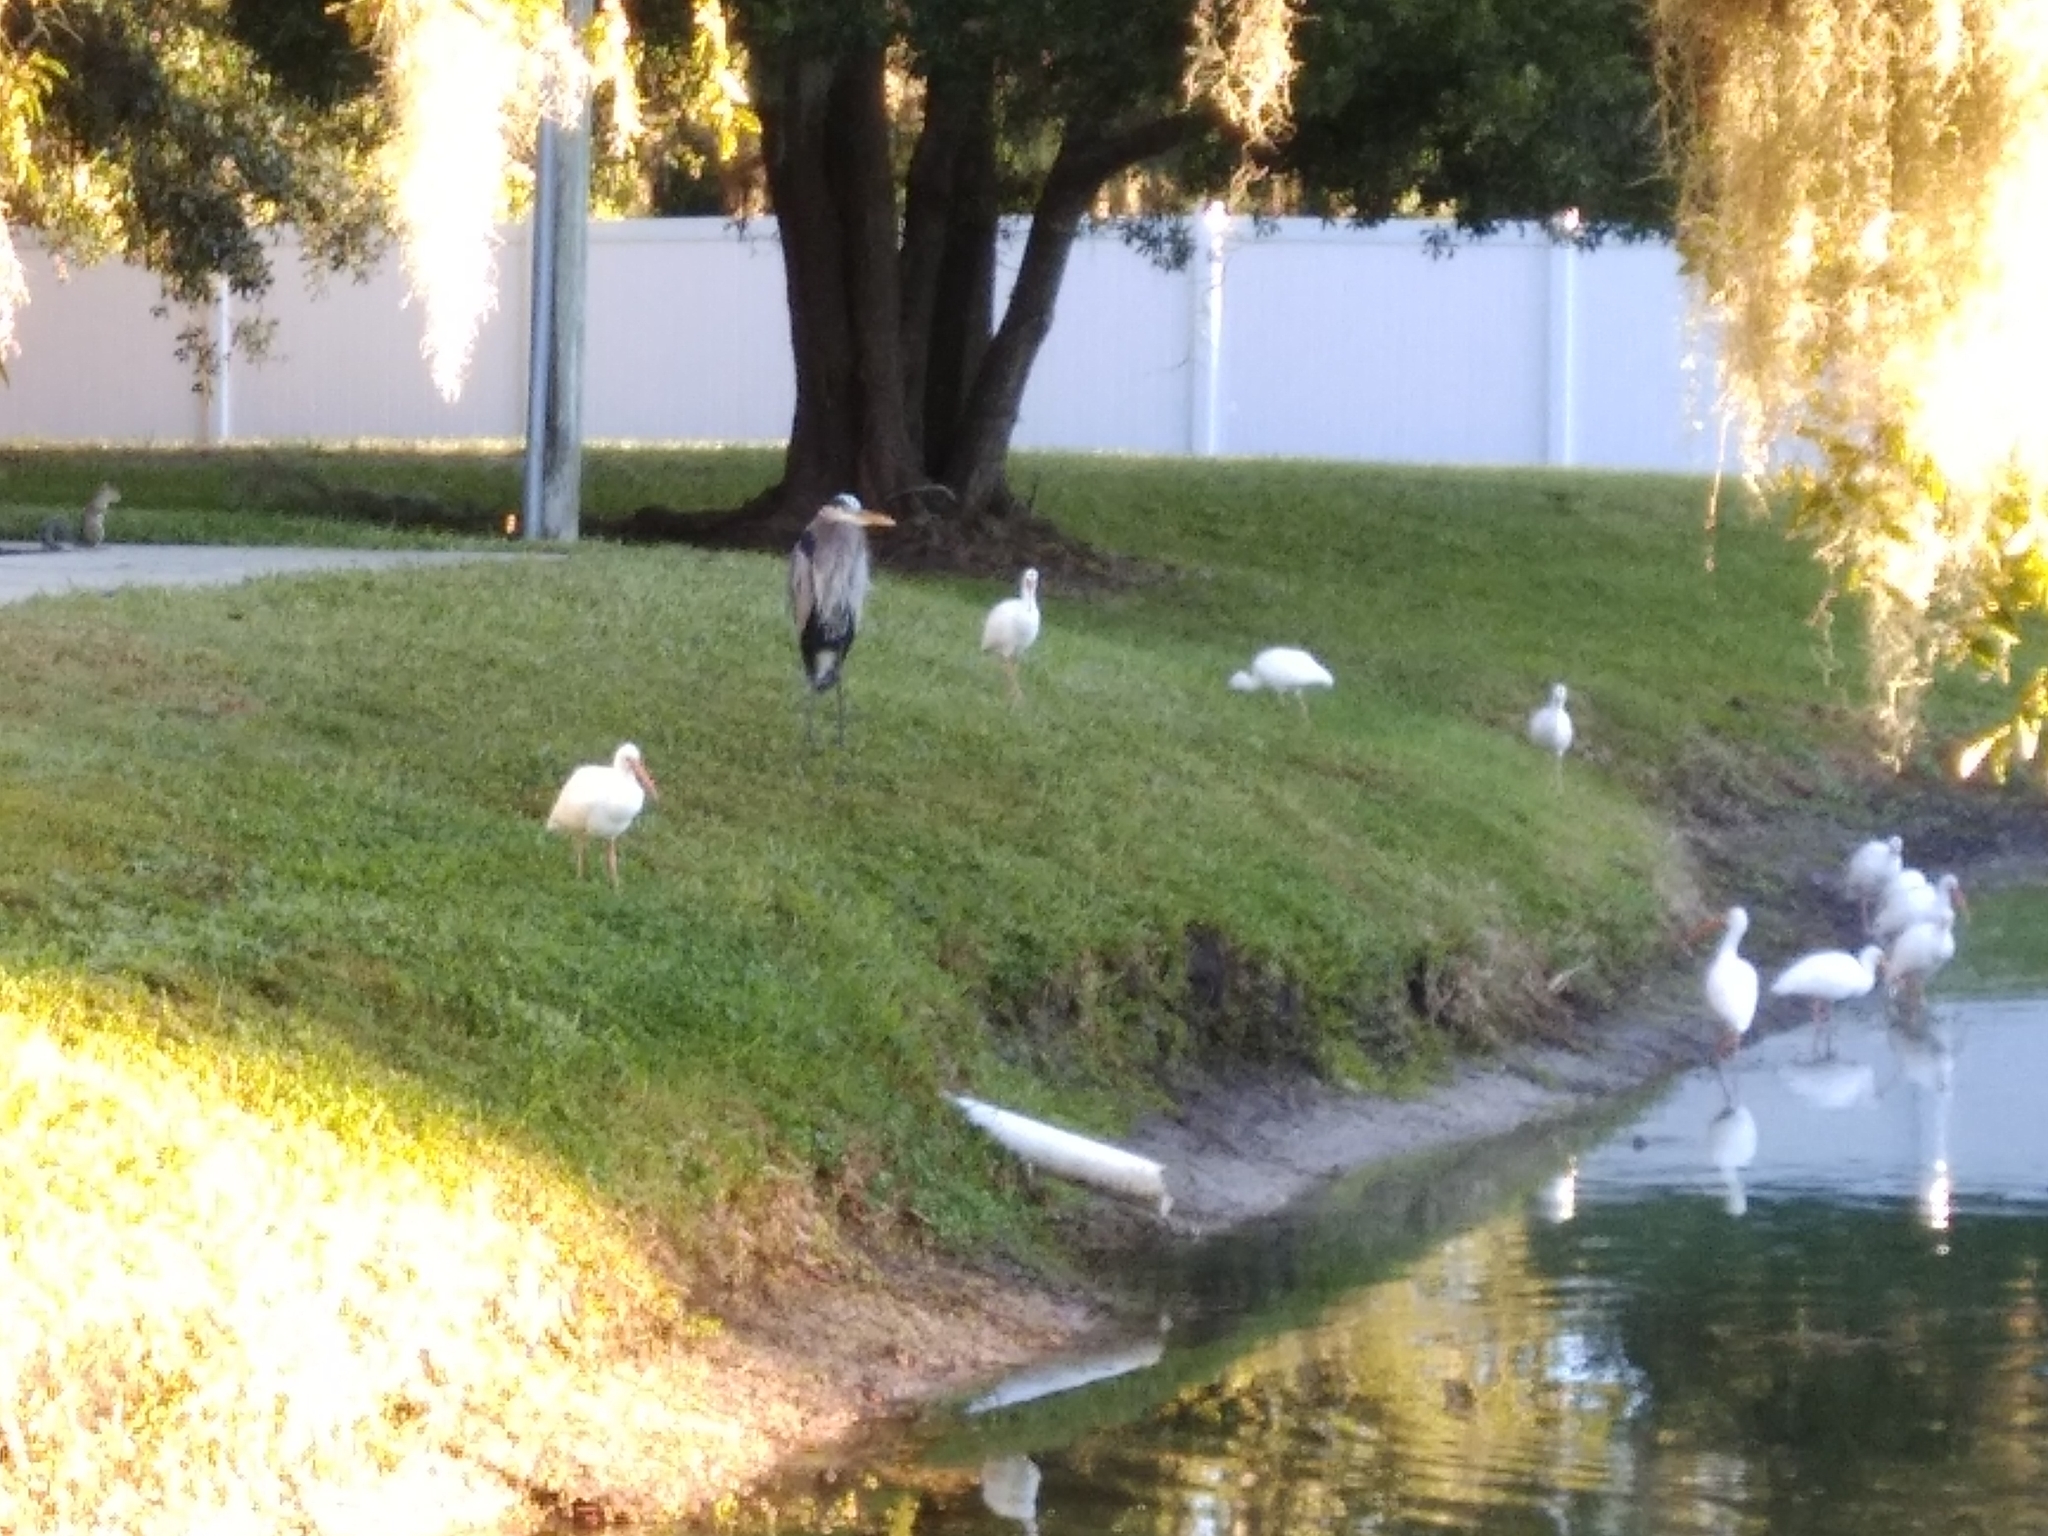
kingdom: Animalia
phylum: Chordata
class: Aves
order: Pelecaniformes
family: Threskiornithidae
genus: Eudocimus
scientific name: Eudocimus albus
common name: White ibis
